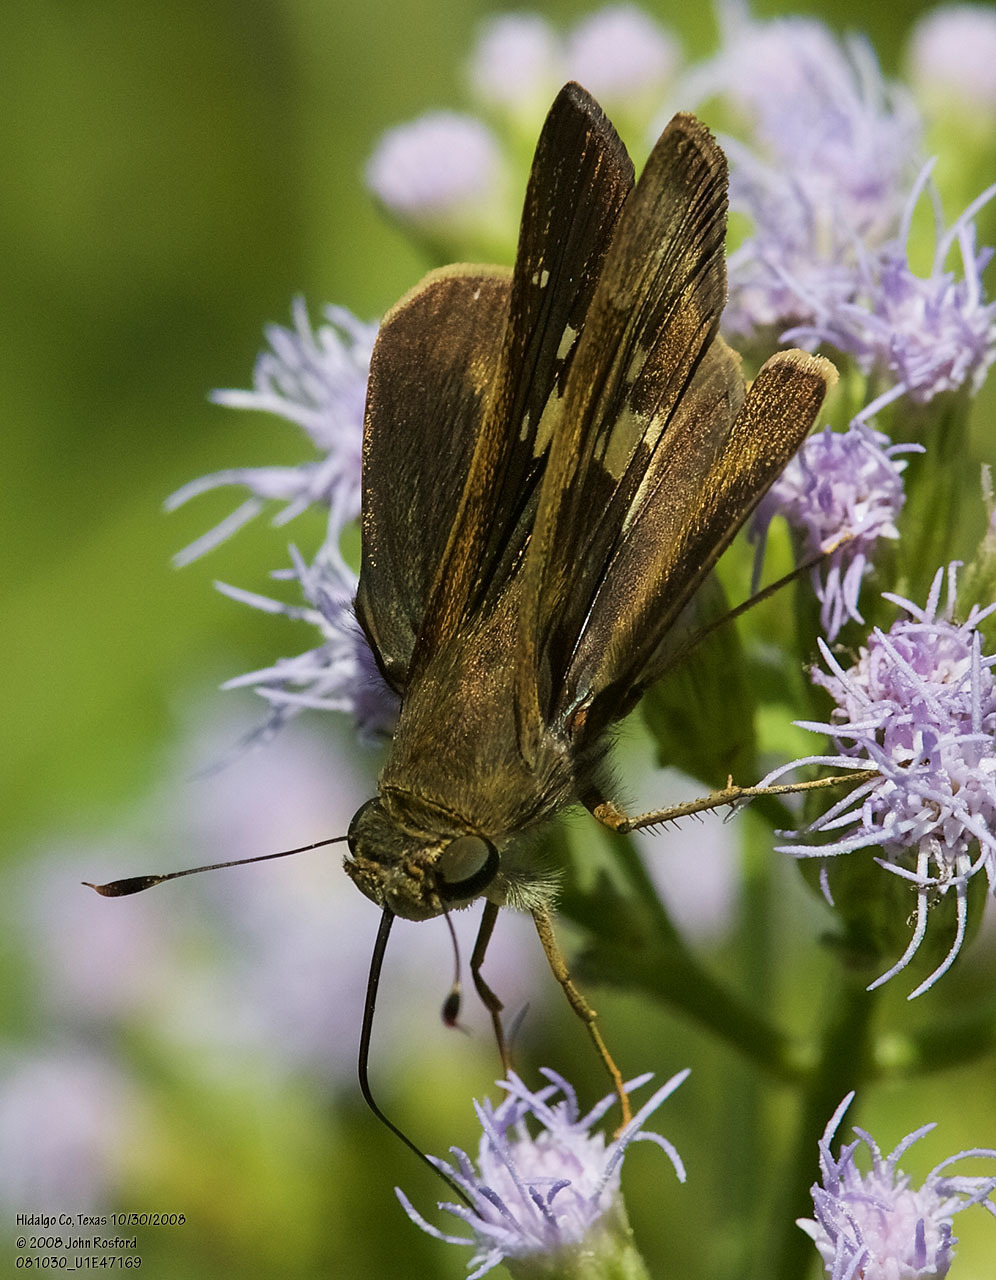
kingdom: Animalia
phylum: Arthropoda
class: Insecta
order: Lepidoptera
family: Hesperiidae
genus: Nyctelius
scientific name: Nyctelius nyctelius
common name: Violet-banded skipper
